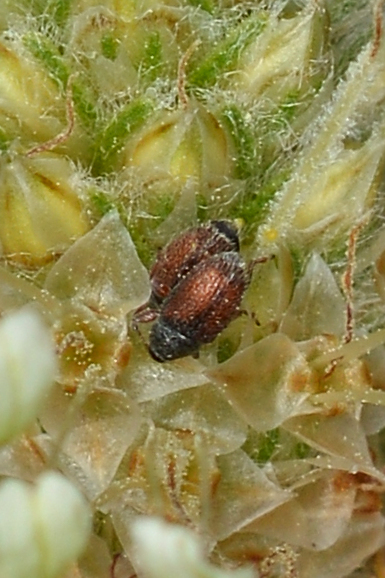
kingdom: Animalia
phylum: Arthropoda
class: Insecta
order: Coleoptera
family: Curculionidae
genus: Mecinus
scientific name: Mecinus pascuorum
